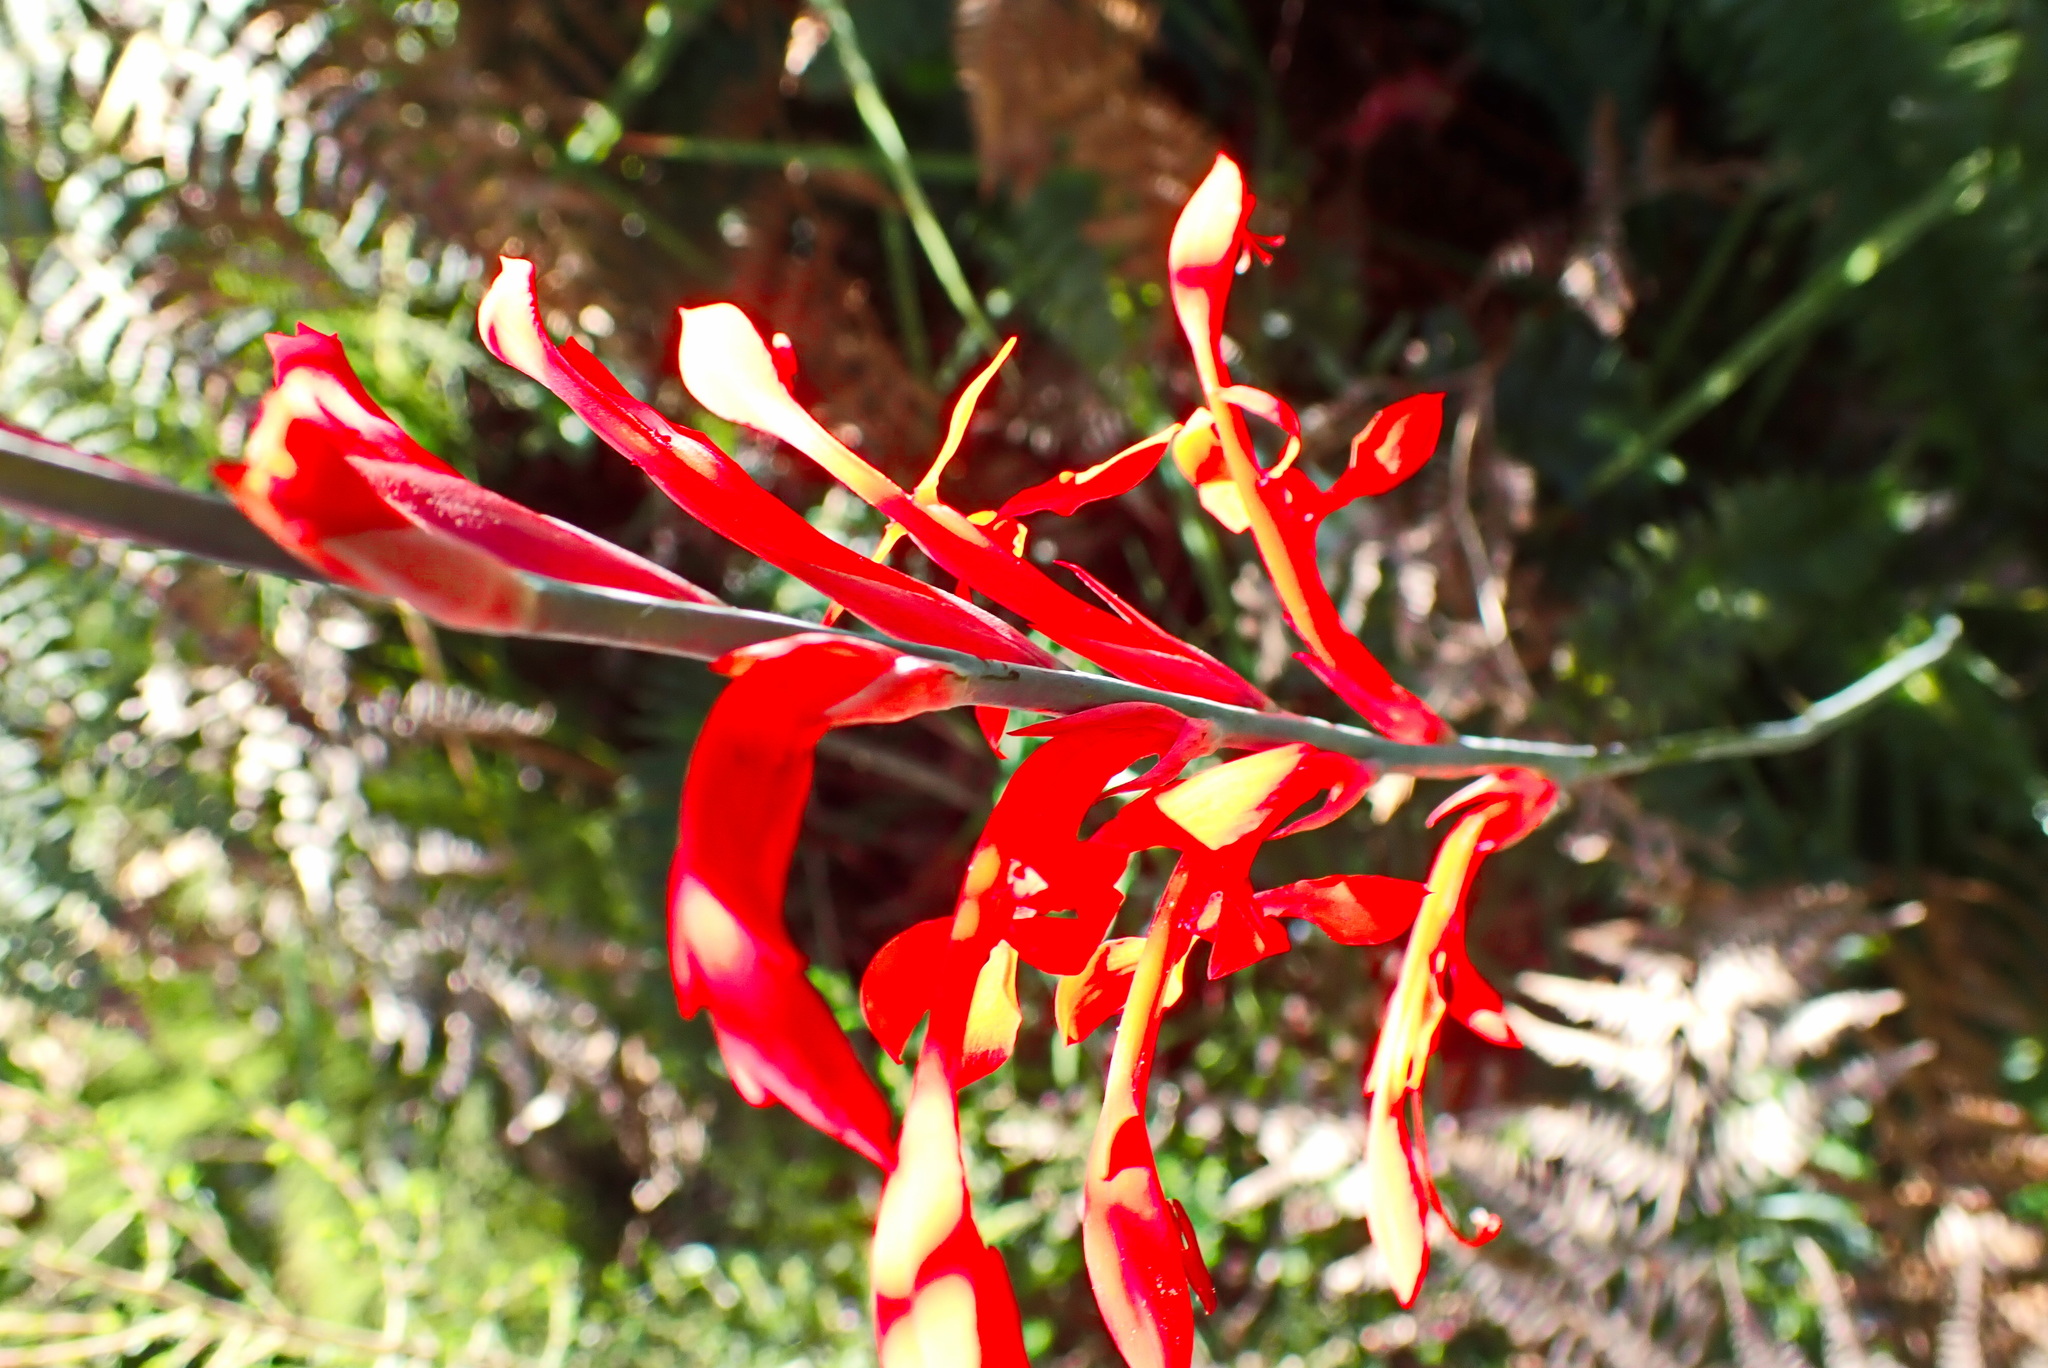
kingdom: Plantae
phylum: Tracheophyta
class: Liliopsida
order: Asparagales
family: Iridaceae
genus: Tritoniopsis
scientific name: Tritoniopsis caffra
